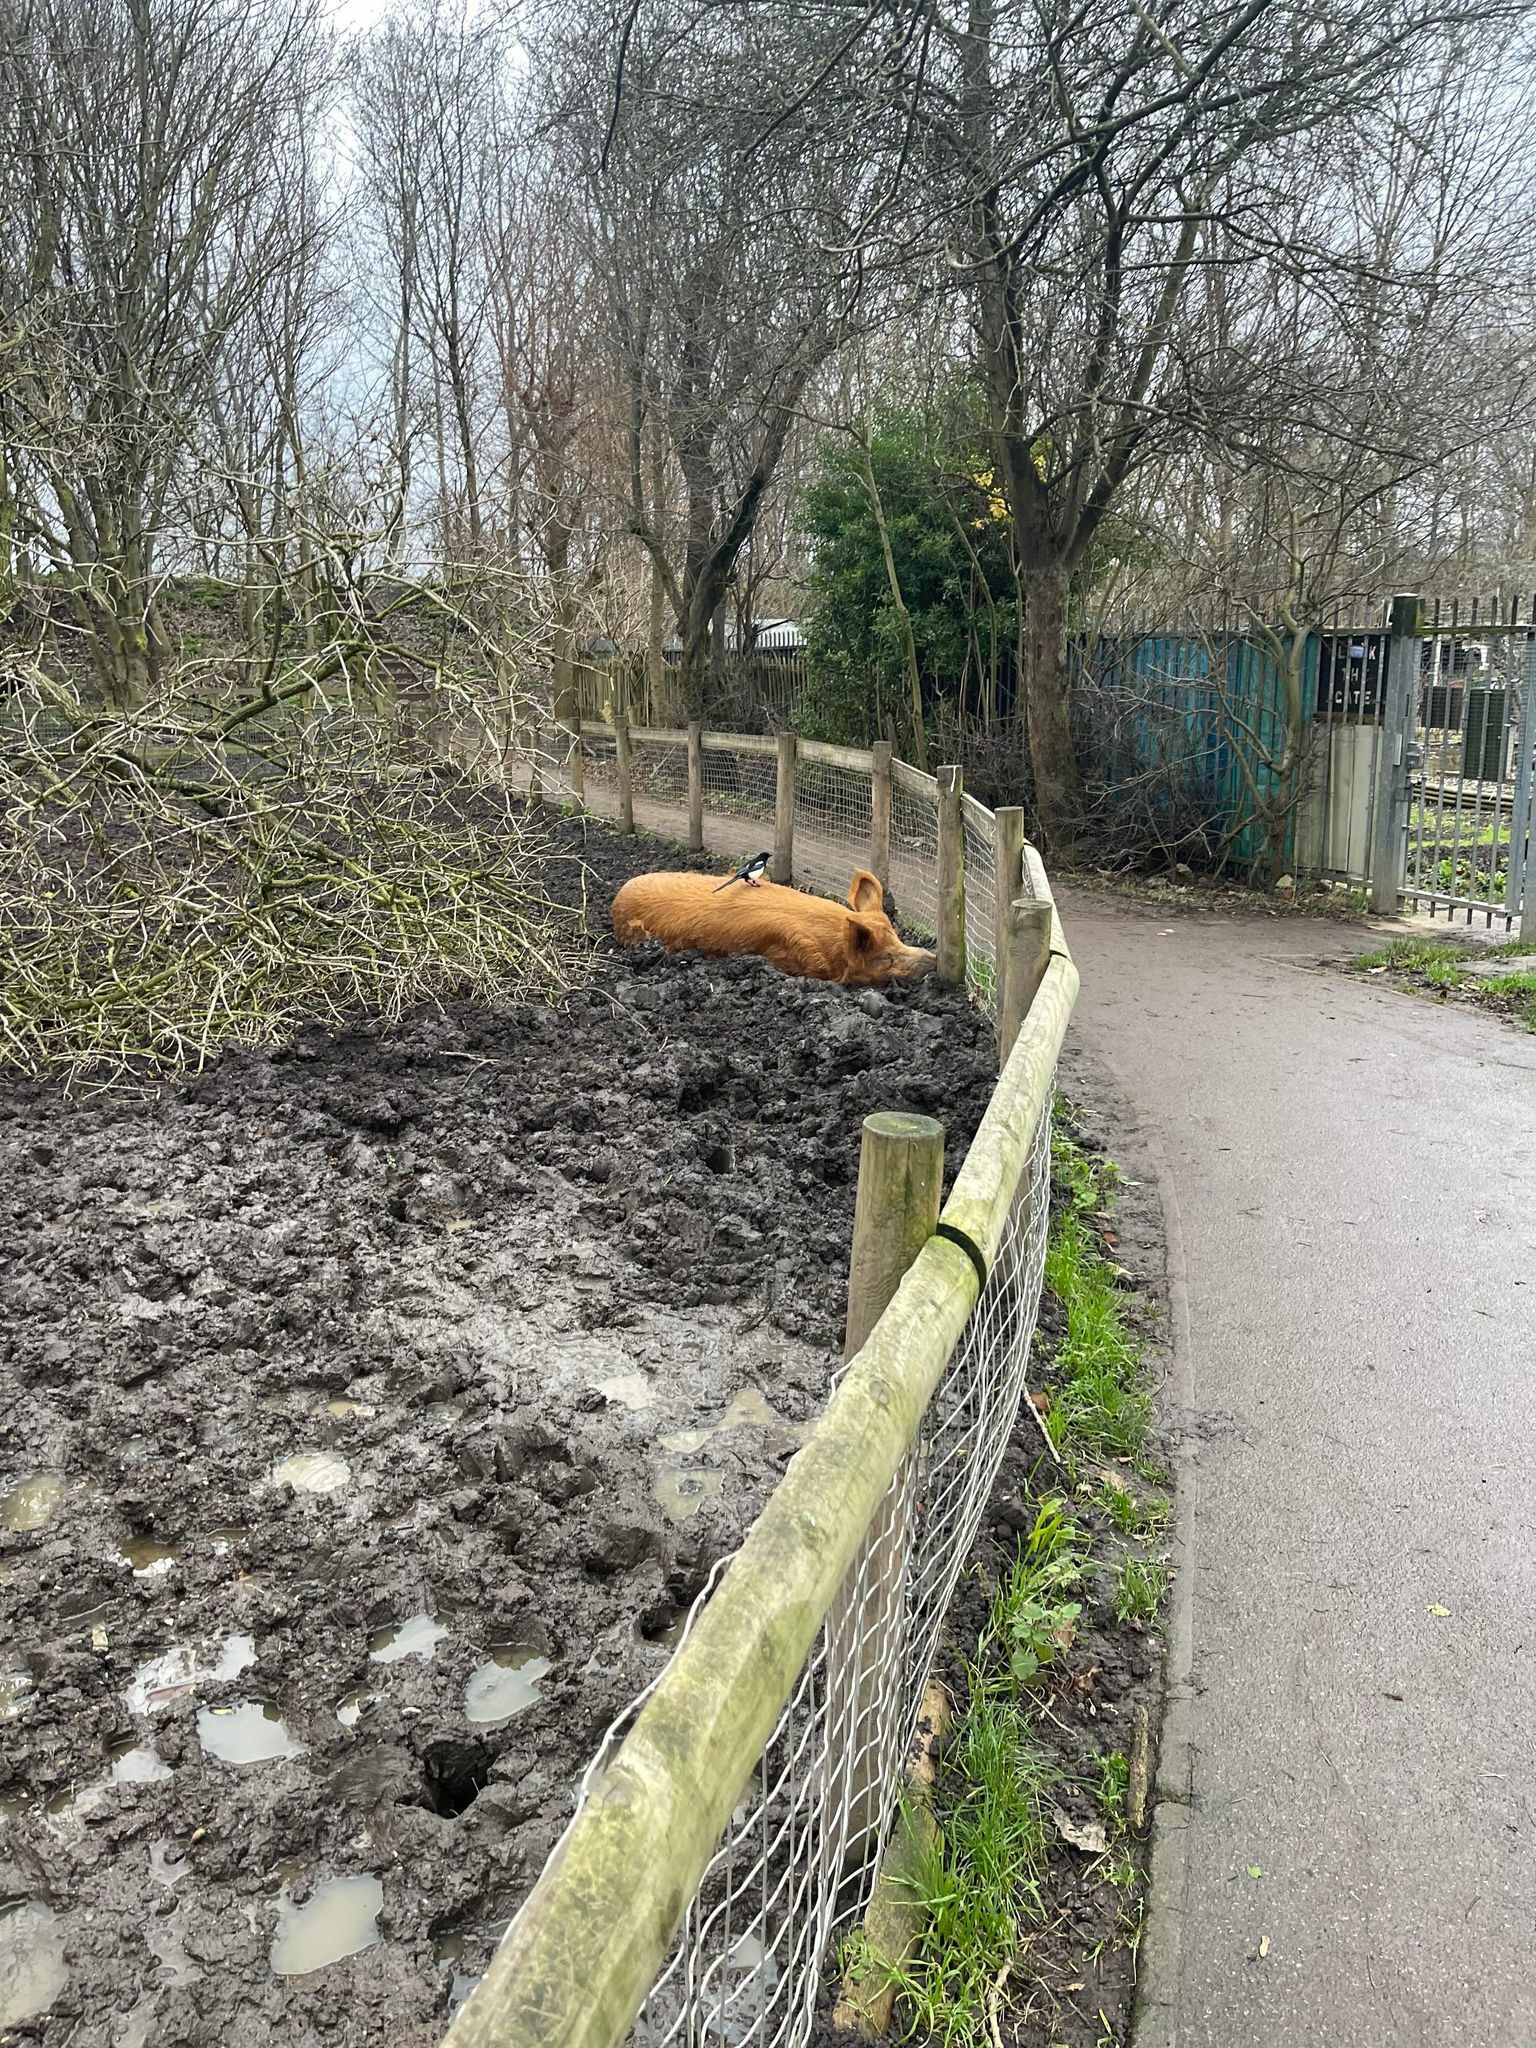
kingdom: Animalia
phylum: Chordata
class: Aves
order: Passeriformes
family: Corvidae
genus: Pica
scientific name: Pica pica
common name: Eurasian magpie
